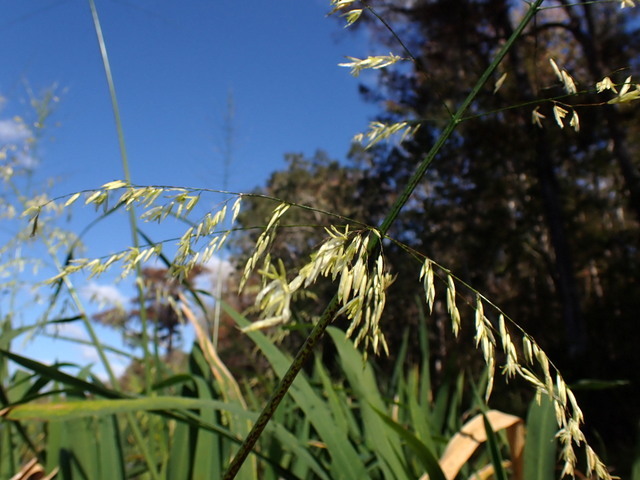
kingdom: Plantae
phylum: Tracheophyta
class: Liliopsida
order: Poales
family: Poaceae
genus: Zizania
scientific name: Zizania aquatica
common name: Annual wildrice
